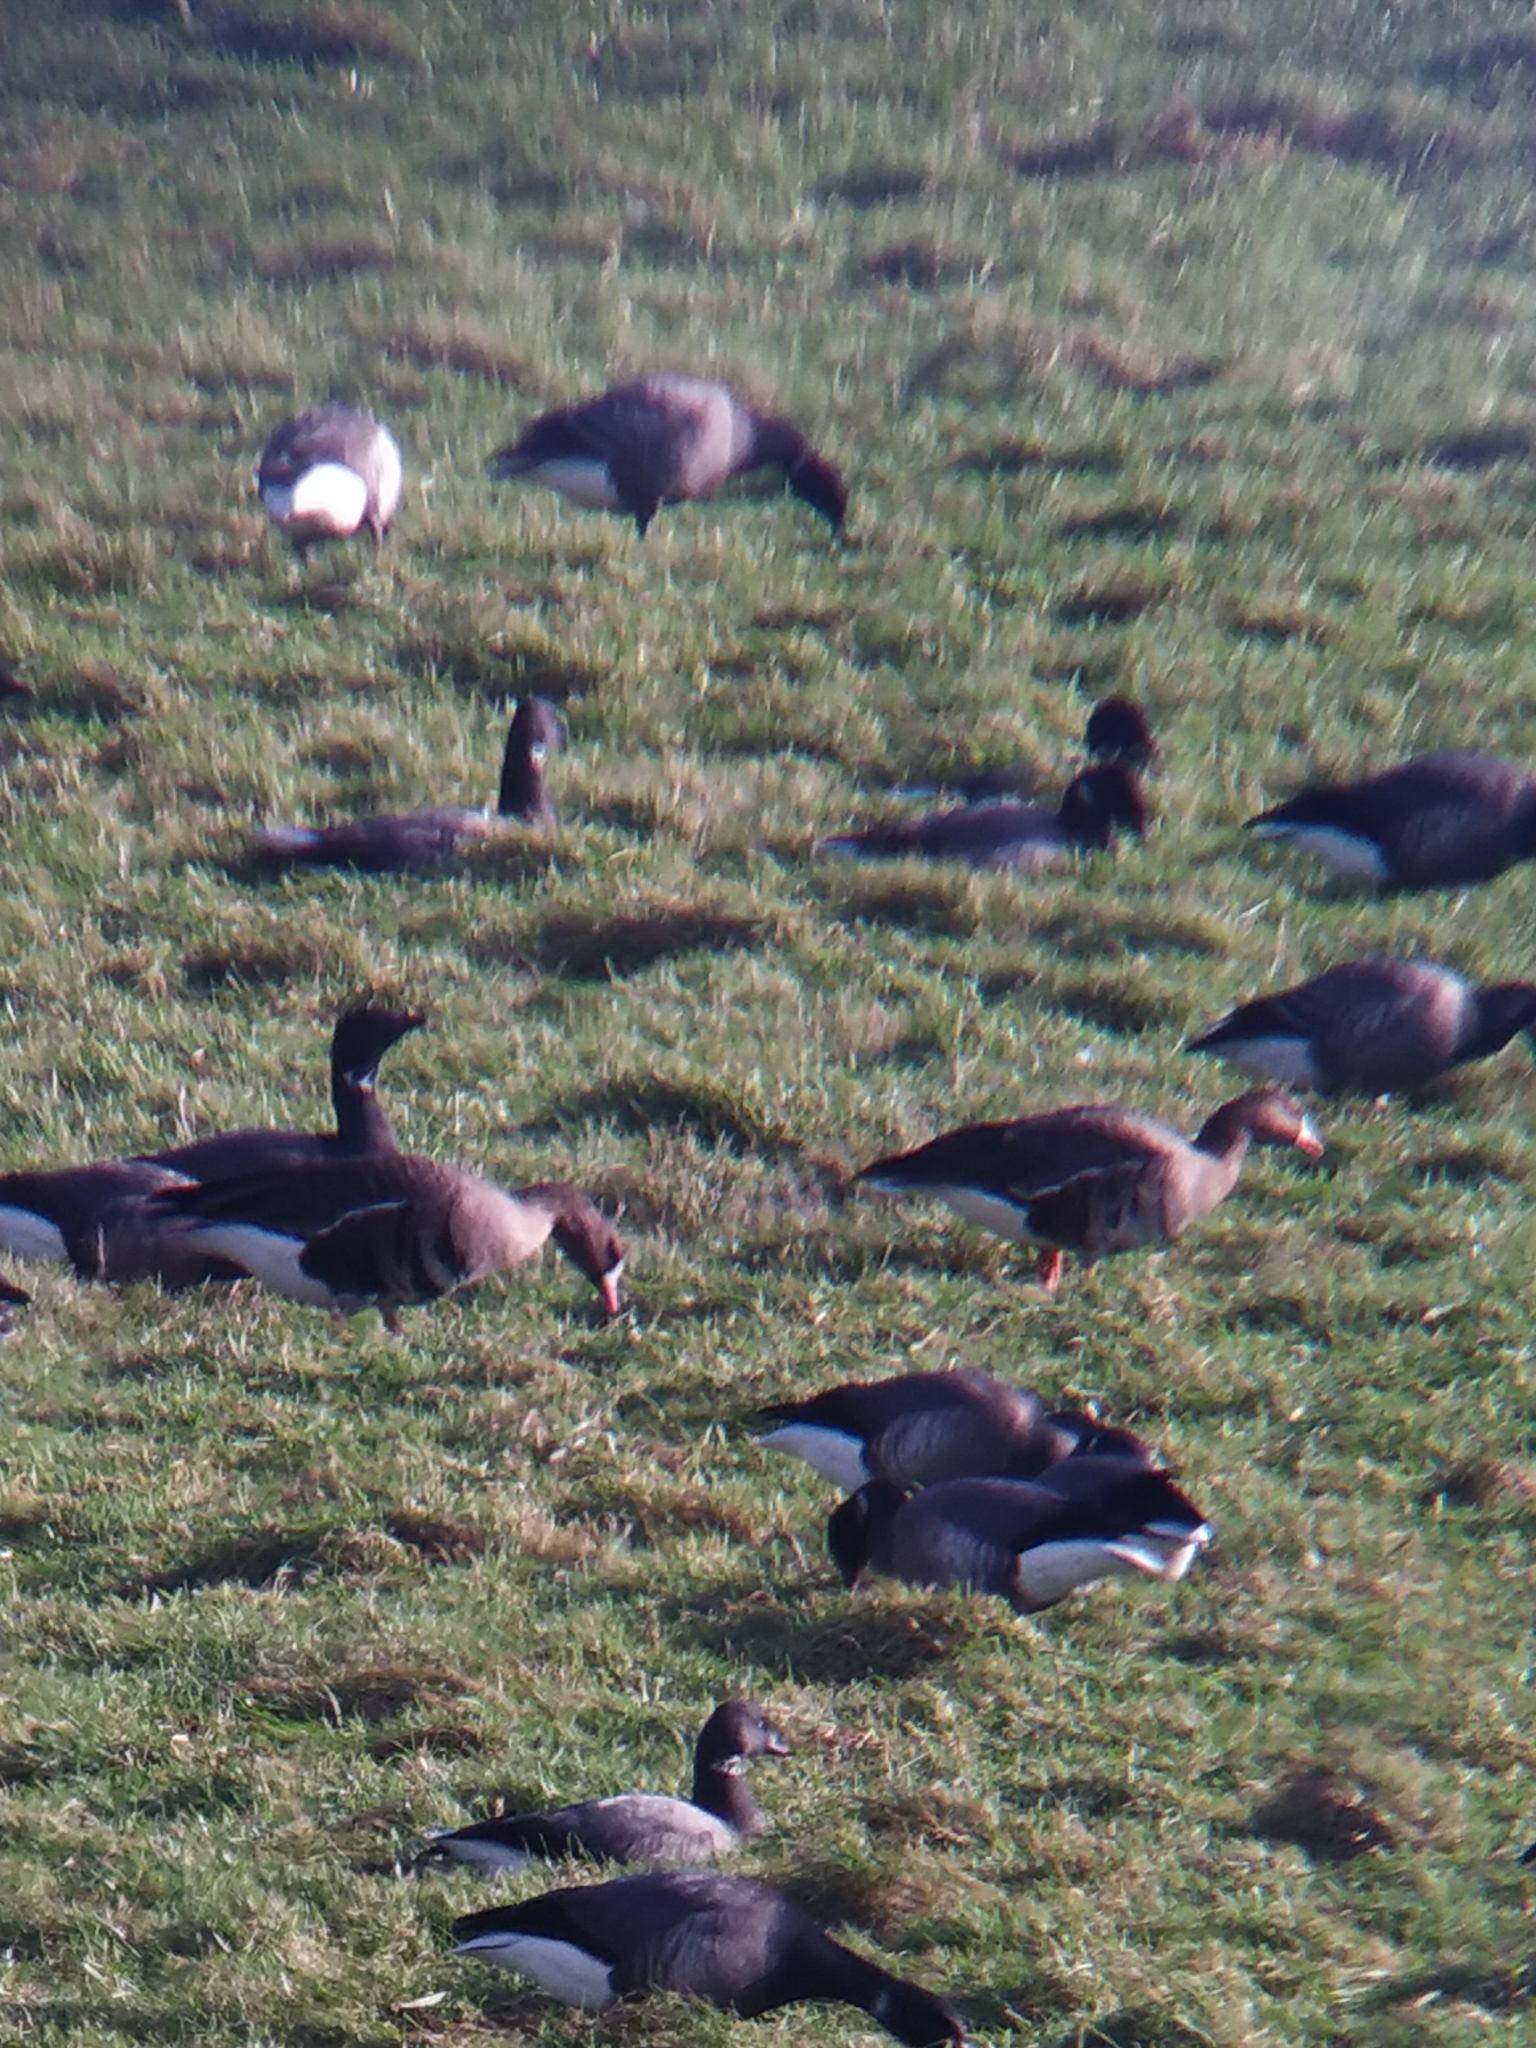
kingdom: Animalia
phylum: Chordata
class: Aves
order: Anseriformes
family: Anatidae
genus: Anser
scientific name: Anser albifrons
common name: Greater white-fronted goose
